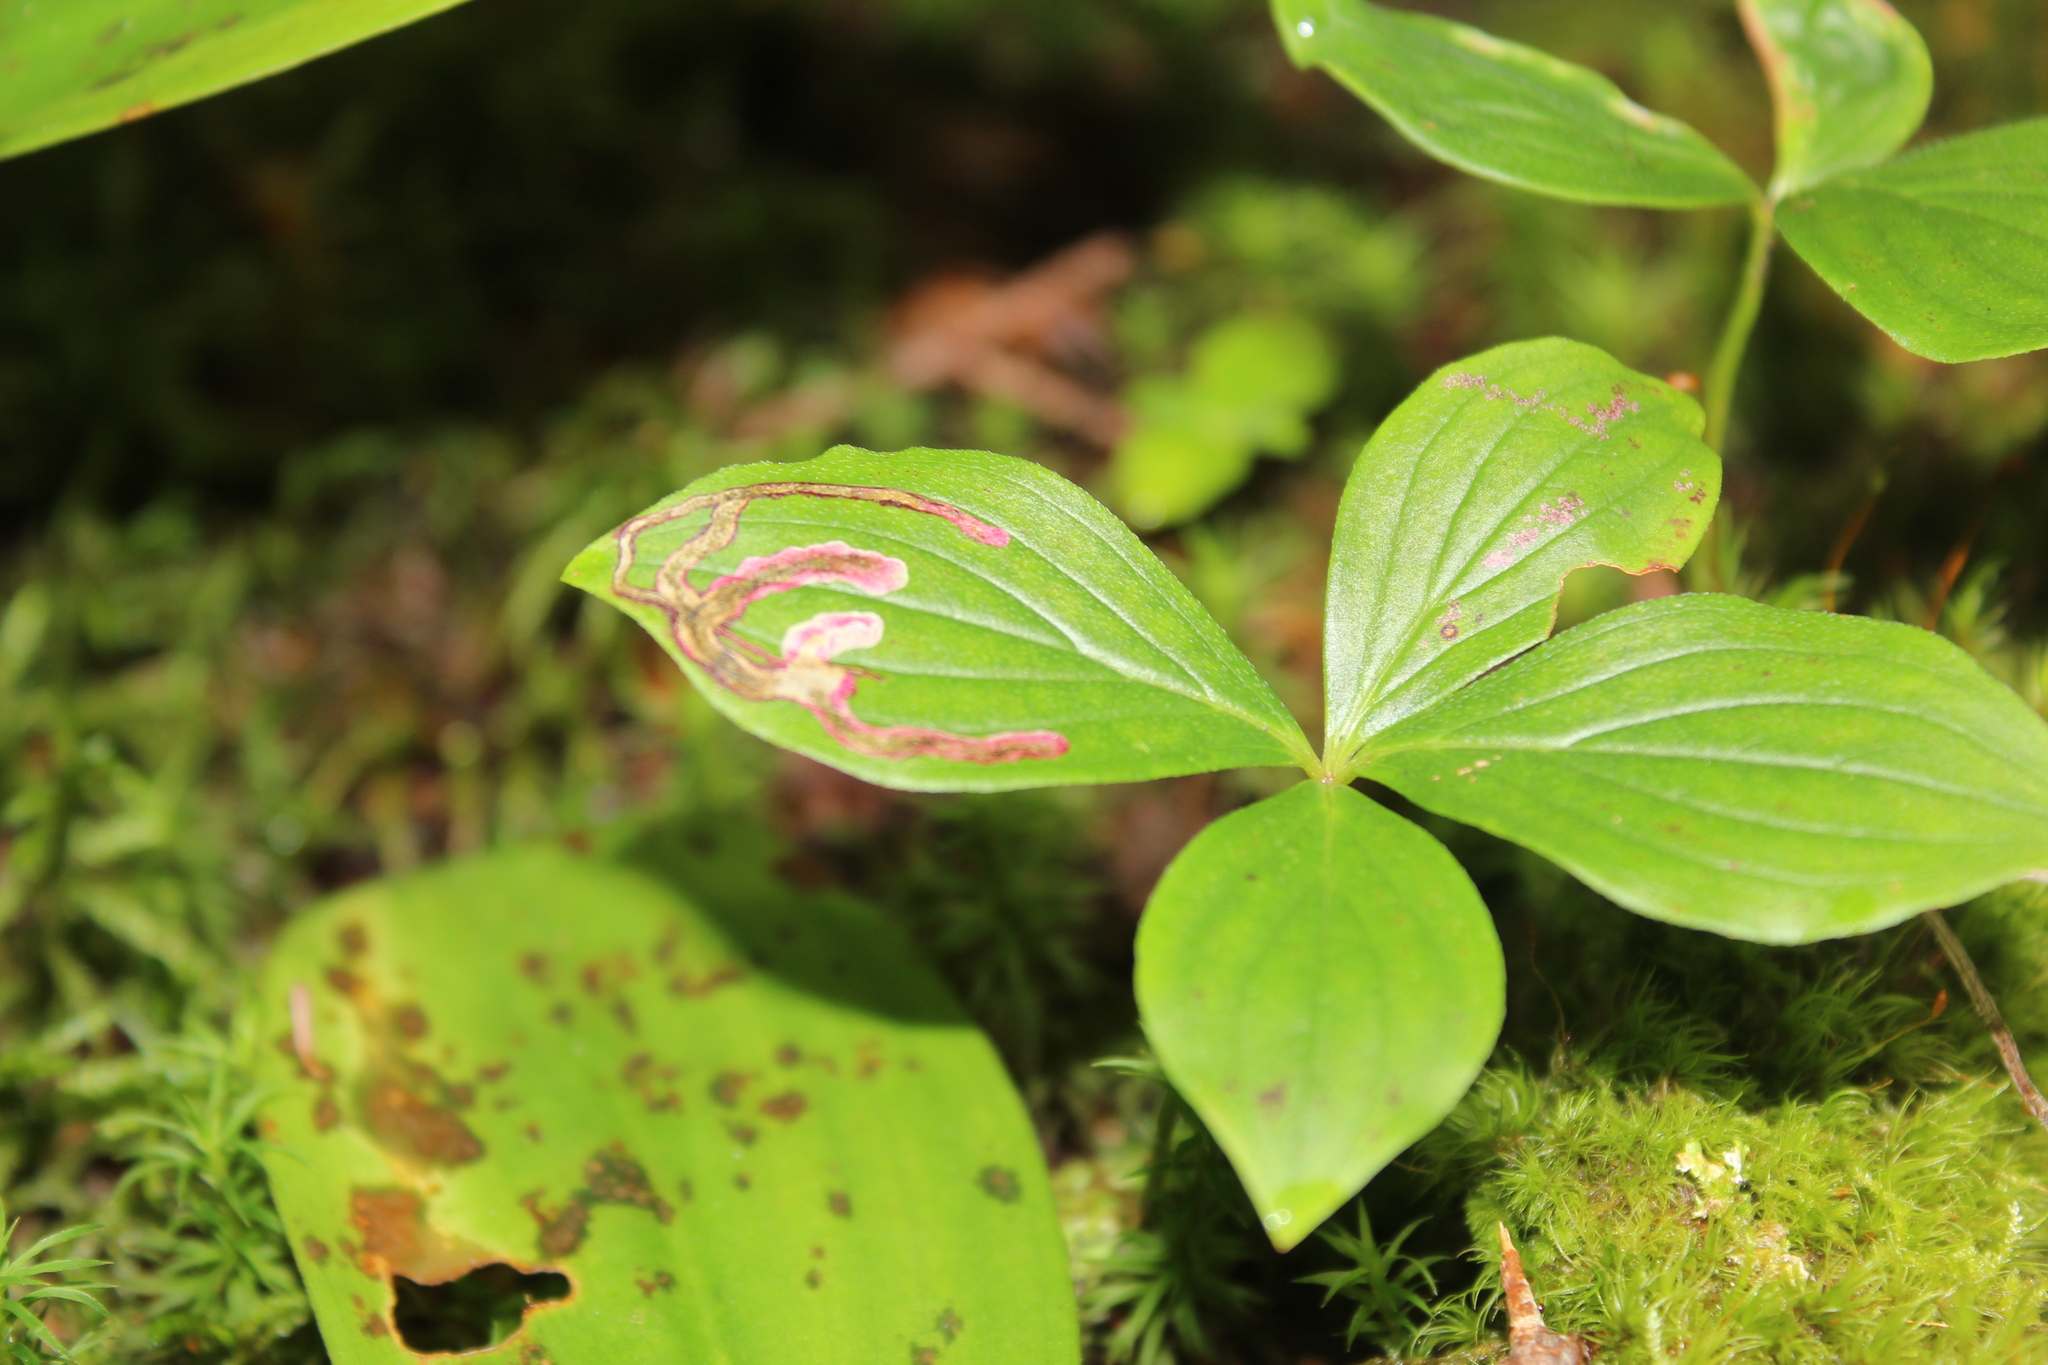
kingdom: Animalia
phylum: Arthropoda
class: Insecta
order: Diptera
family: Agromyzidae
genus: Phytomyza
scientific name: Phytomyza agromyzina
